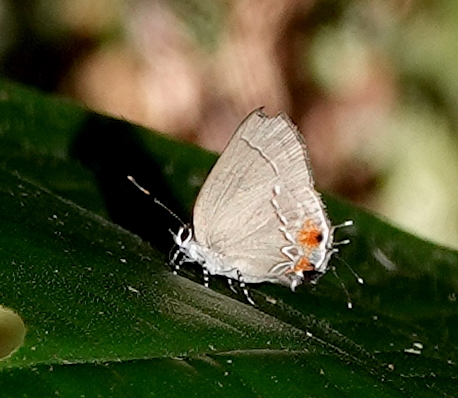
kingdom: Animalia
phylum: Arthropoda
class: Insecta
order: Lepidoptera
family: Lycaenidae
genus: Camissecla
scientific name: Camissecla
